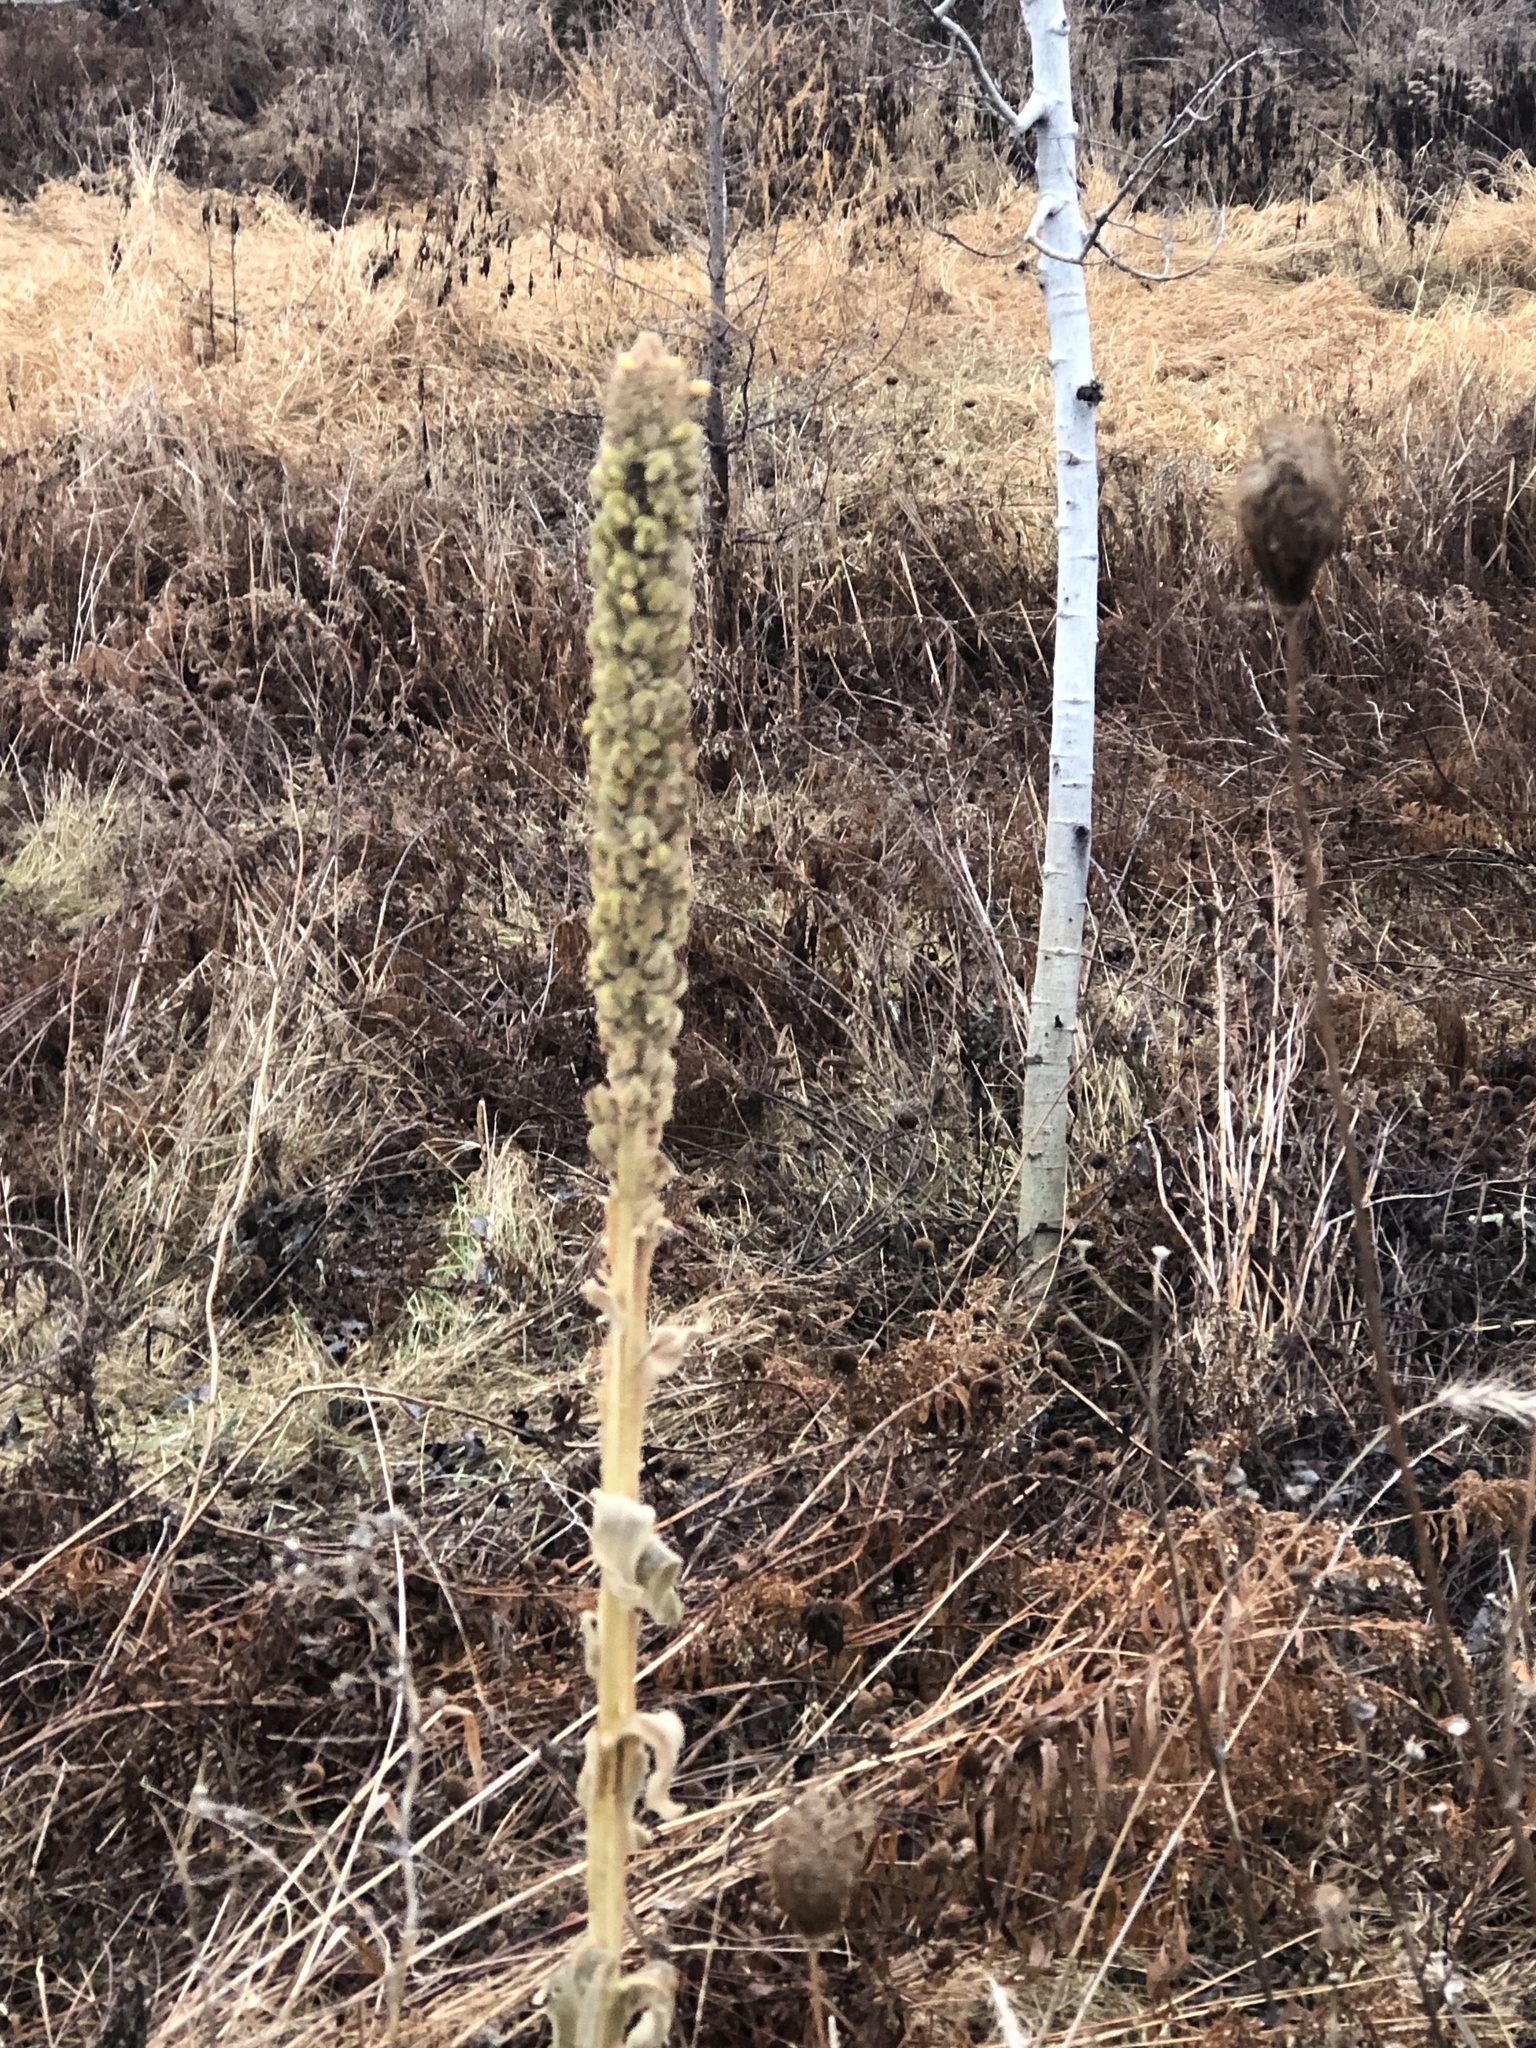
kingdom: Plantae
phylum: Tracheophyta
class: Magnoliopsida
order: Lamiales
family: Scrophulariaceae
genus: Verbascum
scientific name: Verbascum thapsus
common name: Common mullein
